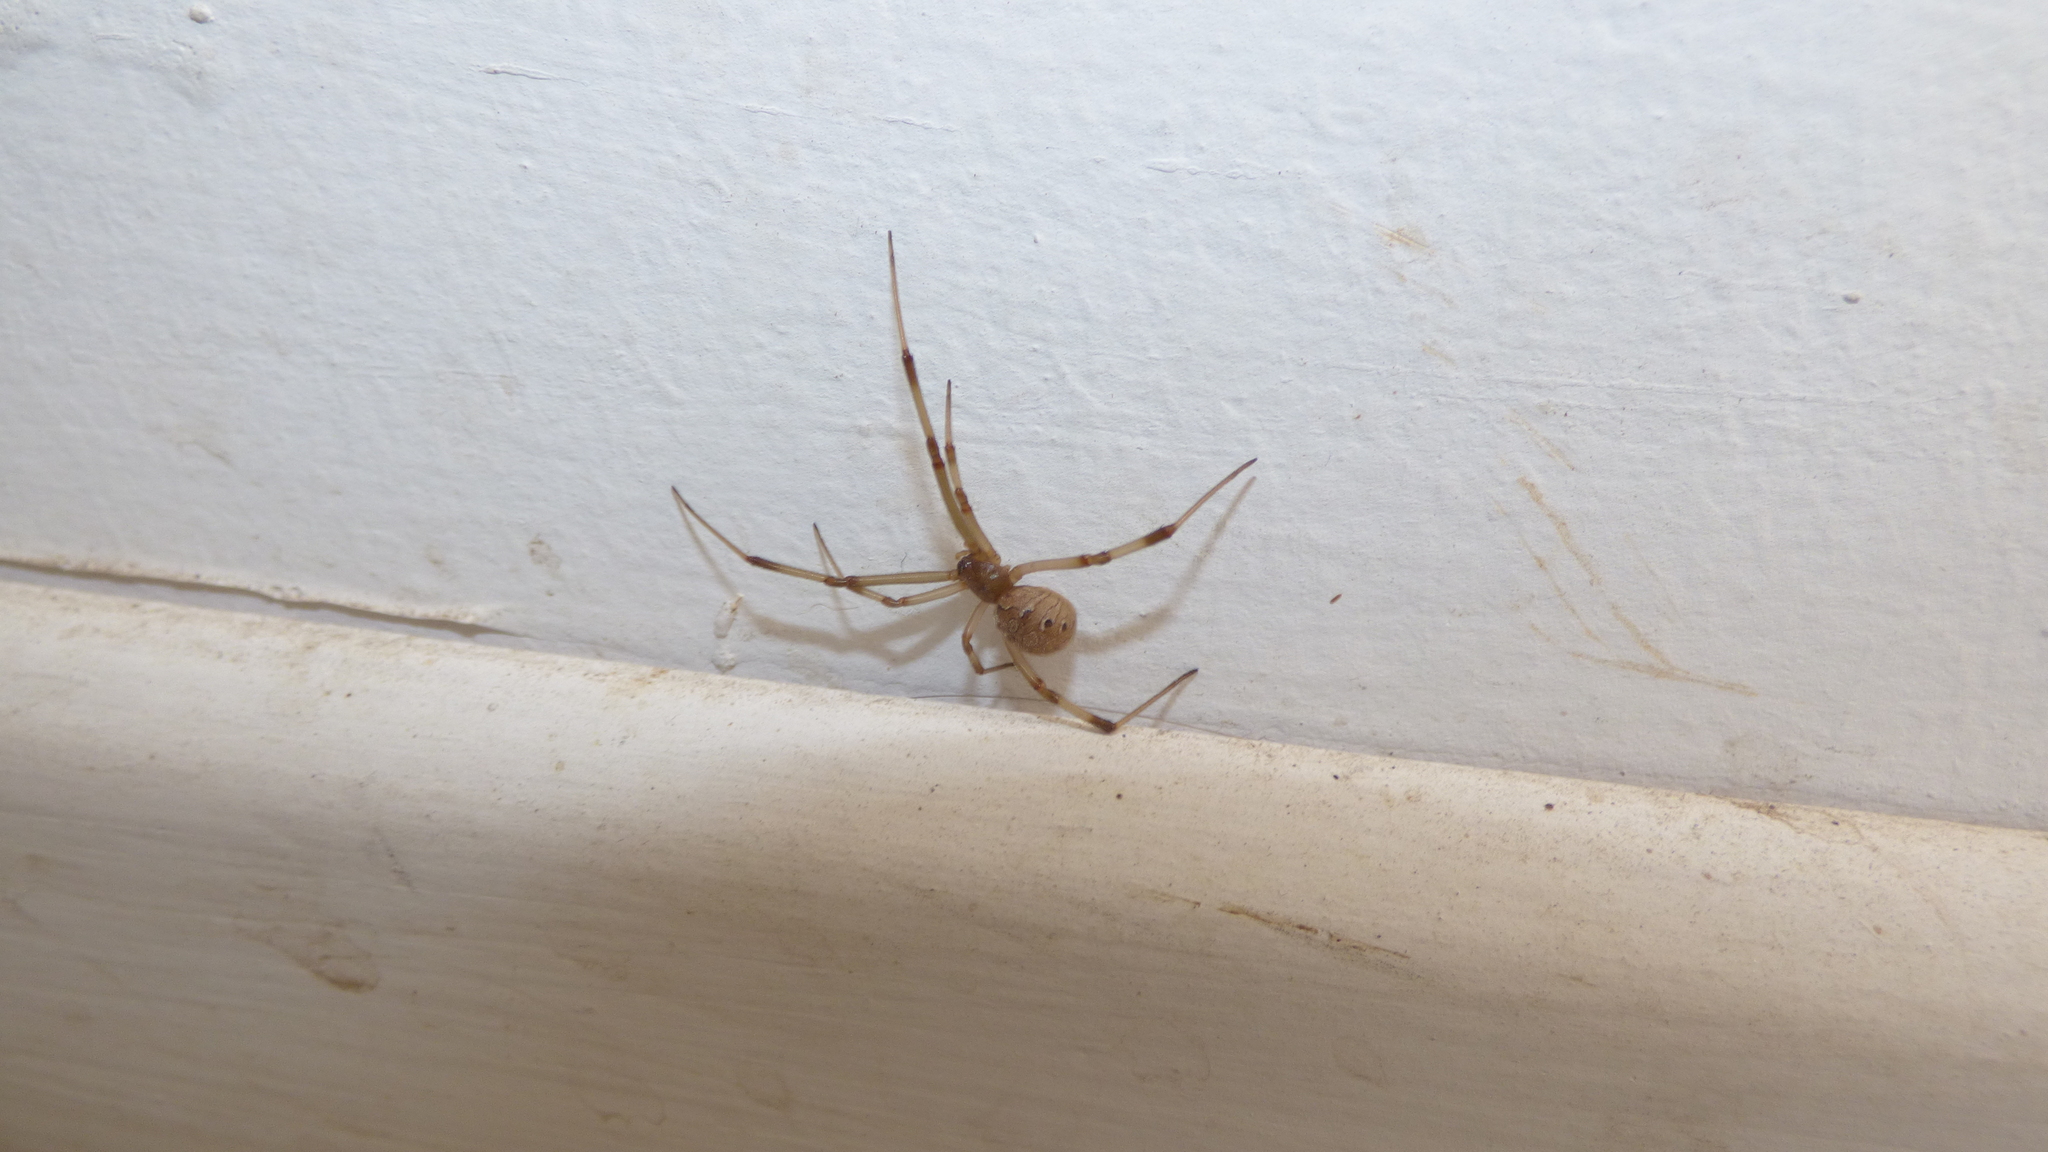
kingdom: Animalia
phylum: Arthropoda
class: Arachnida
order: Araneae
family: Theridiidae
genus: Latrodectus
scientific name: Latrodectus geometricus
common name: Brown widow spider
